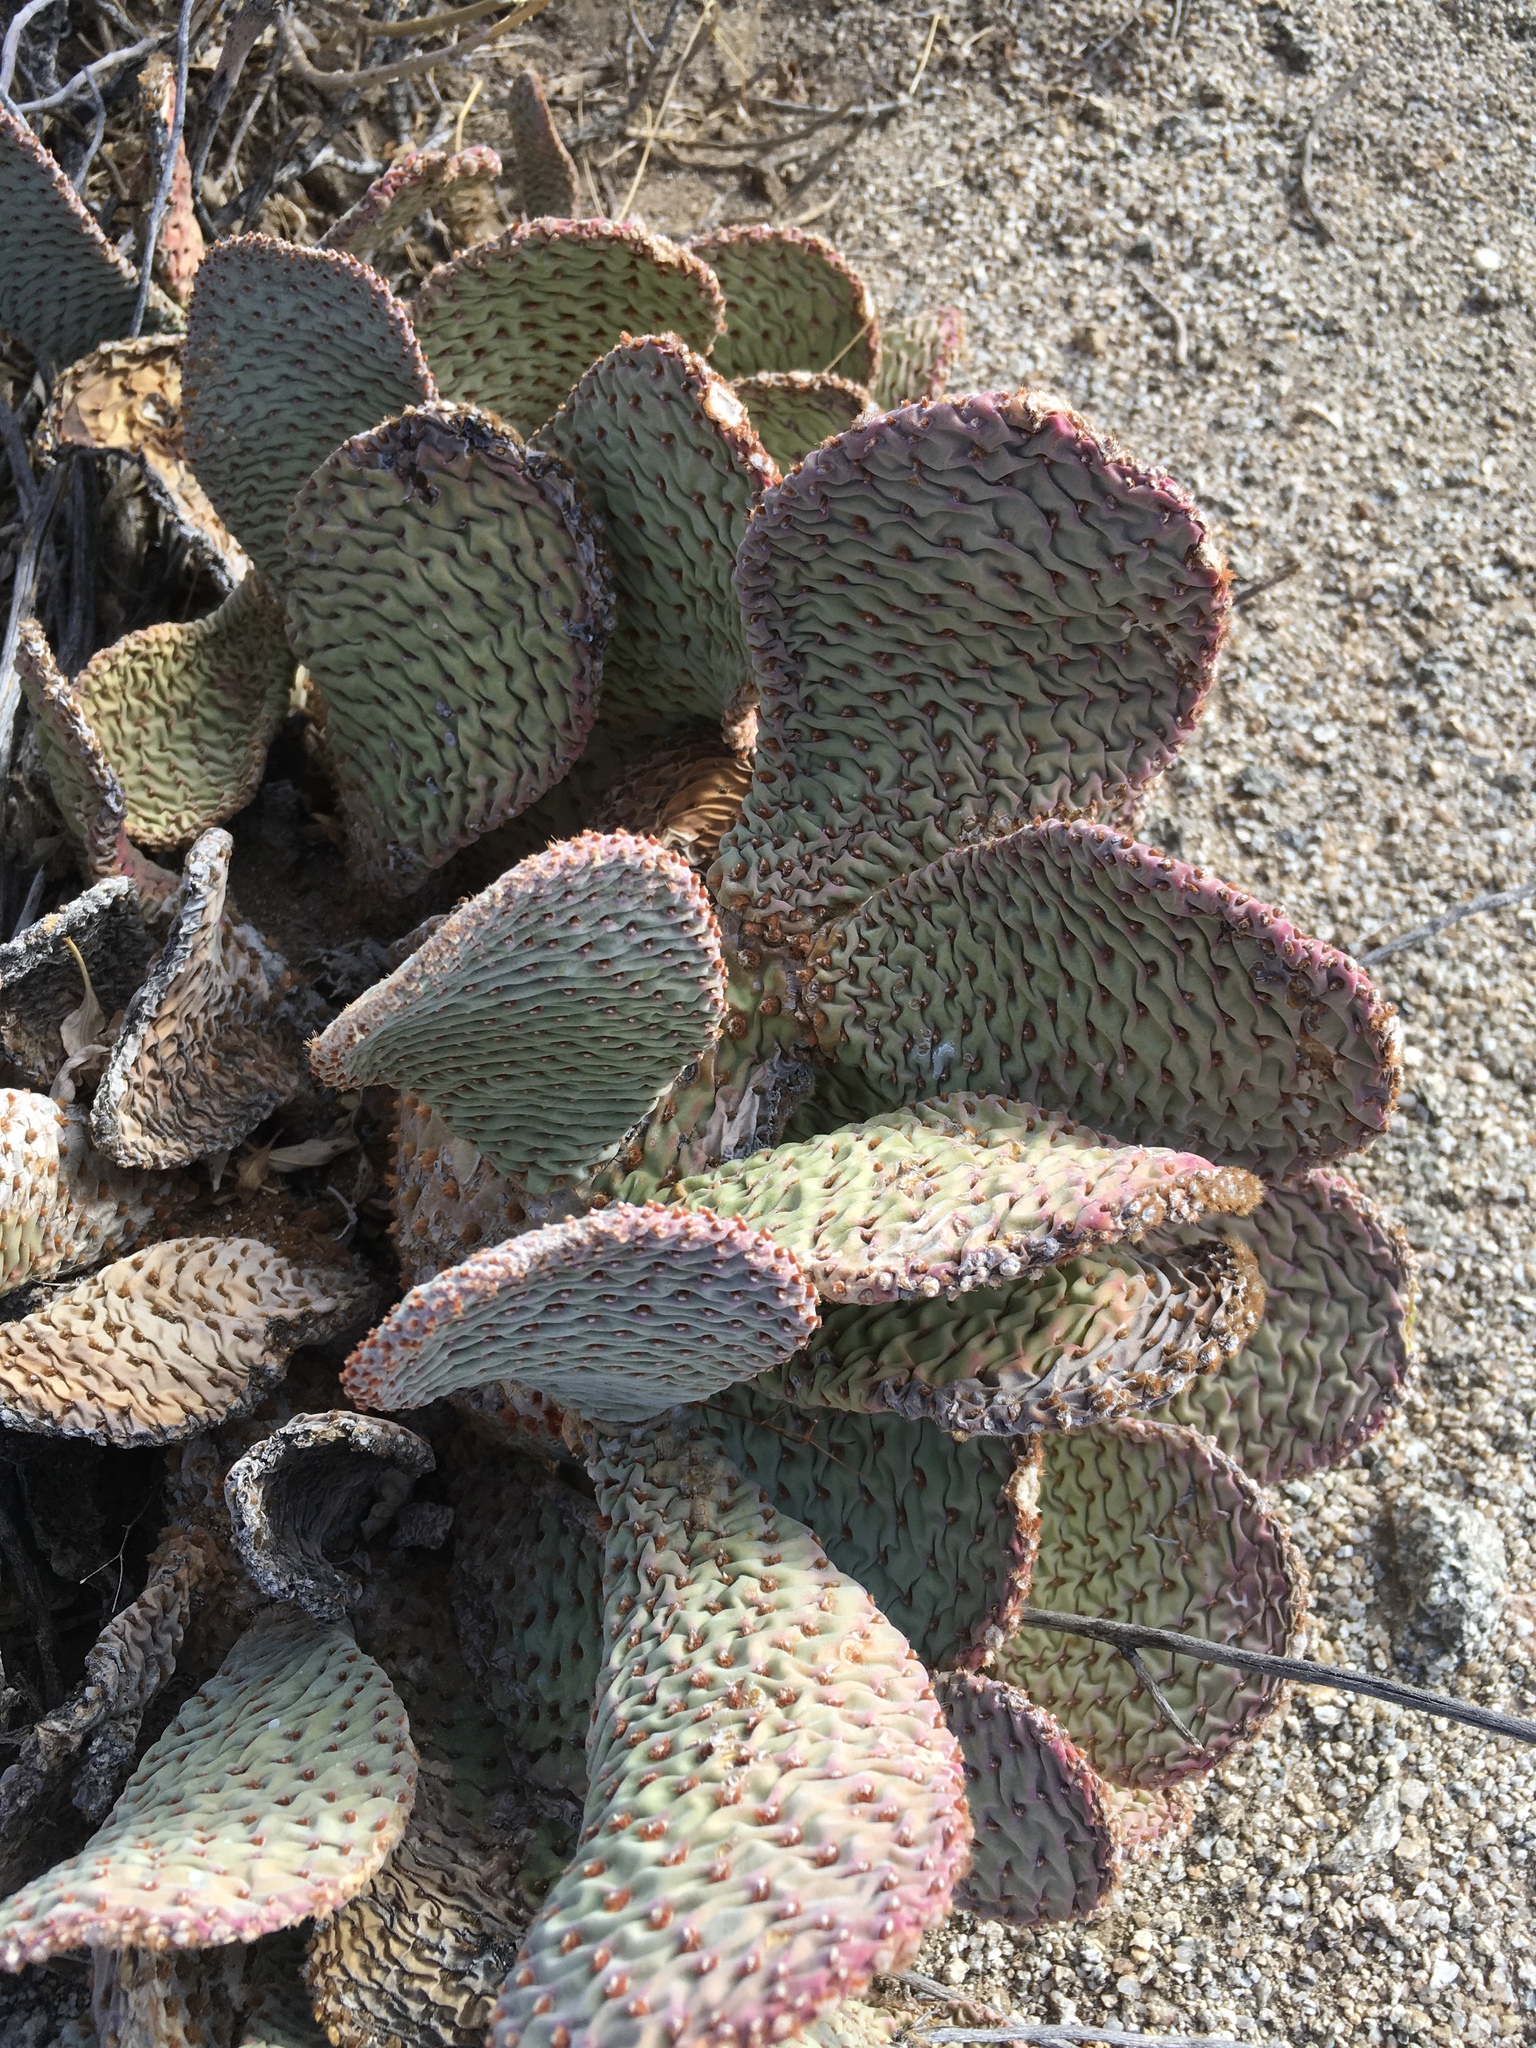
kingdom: Plantae
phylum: Tracheophyta
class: Magnoliopsida
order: Caryophyllales
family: Cactaceae
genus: Opuntia
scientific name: Opuntia basilaris
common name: Beavertail prickly-pear
